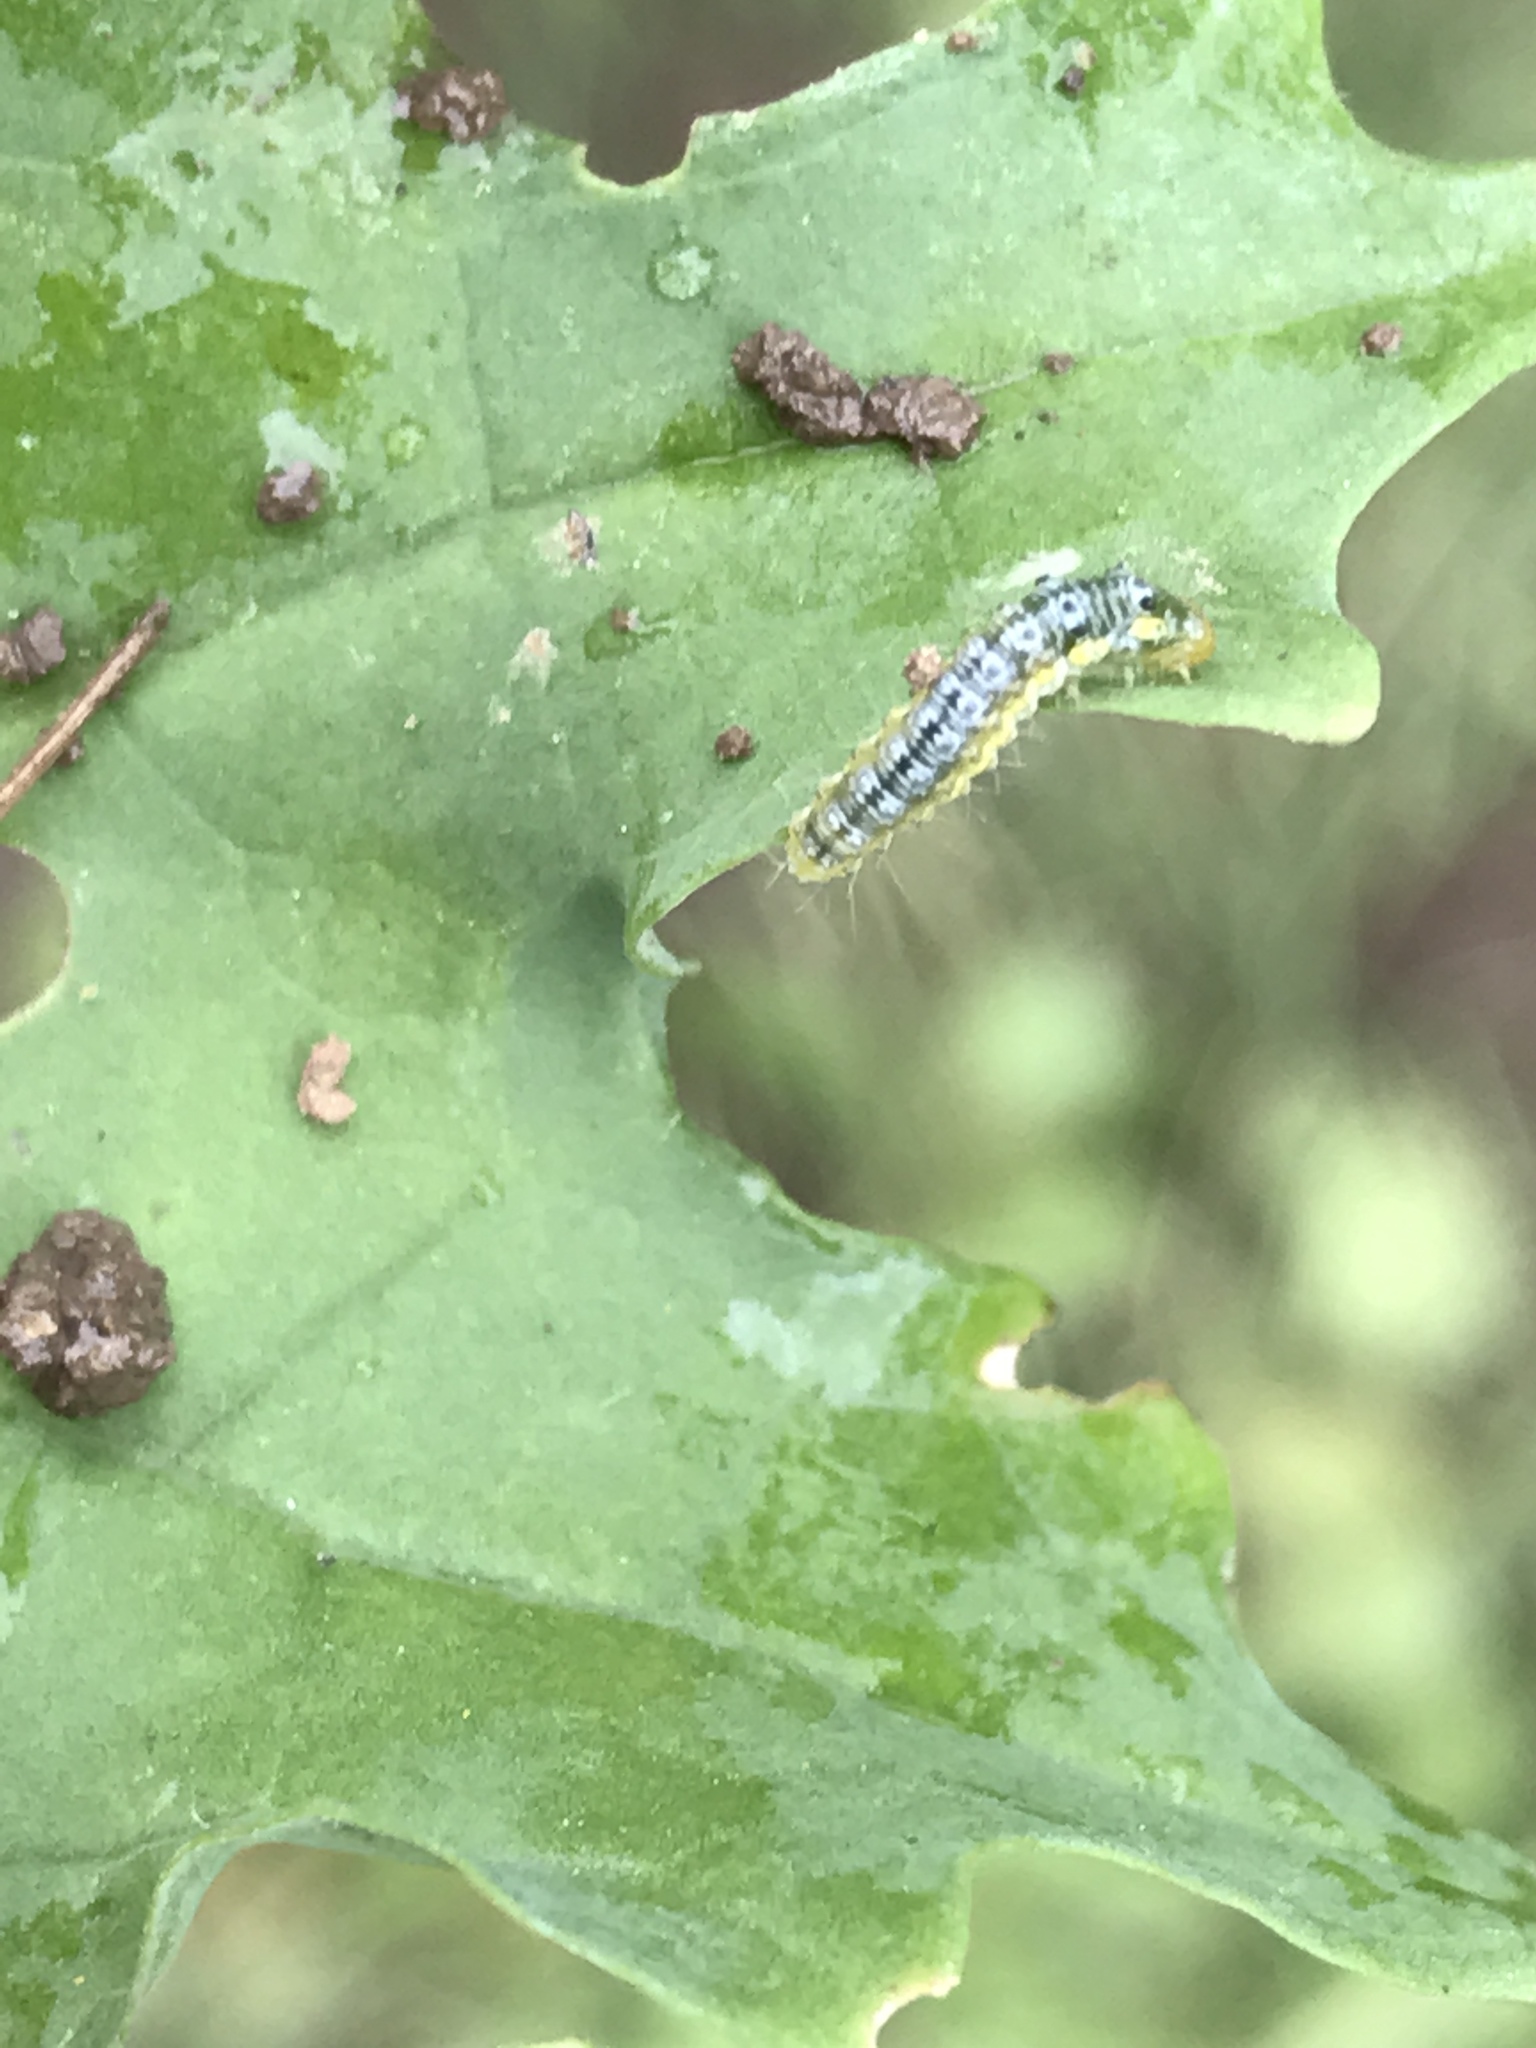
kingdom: Animalia
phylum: Arthropoda
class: Insecta
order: Lepidoptera
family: Crambidae
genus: Evergestis
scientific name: Evergestis rimosalis
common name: Cross-striped cabbageworm moth
